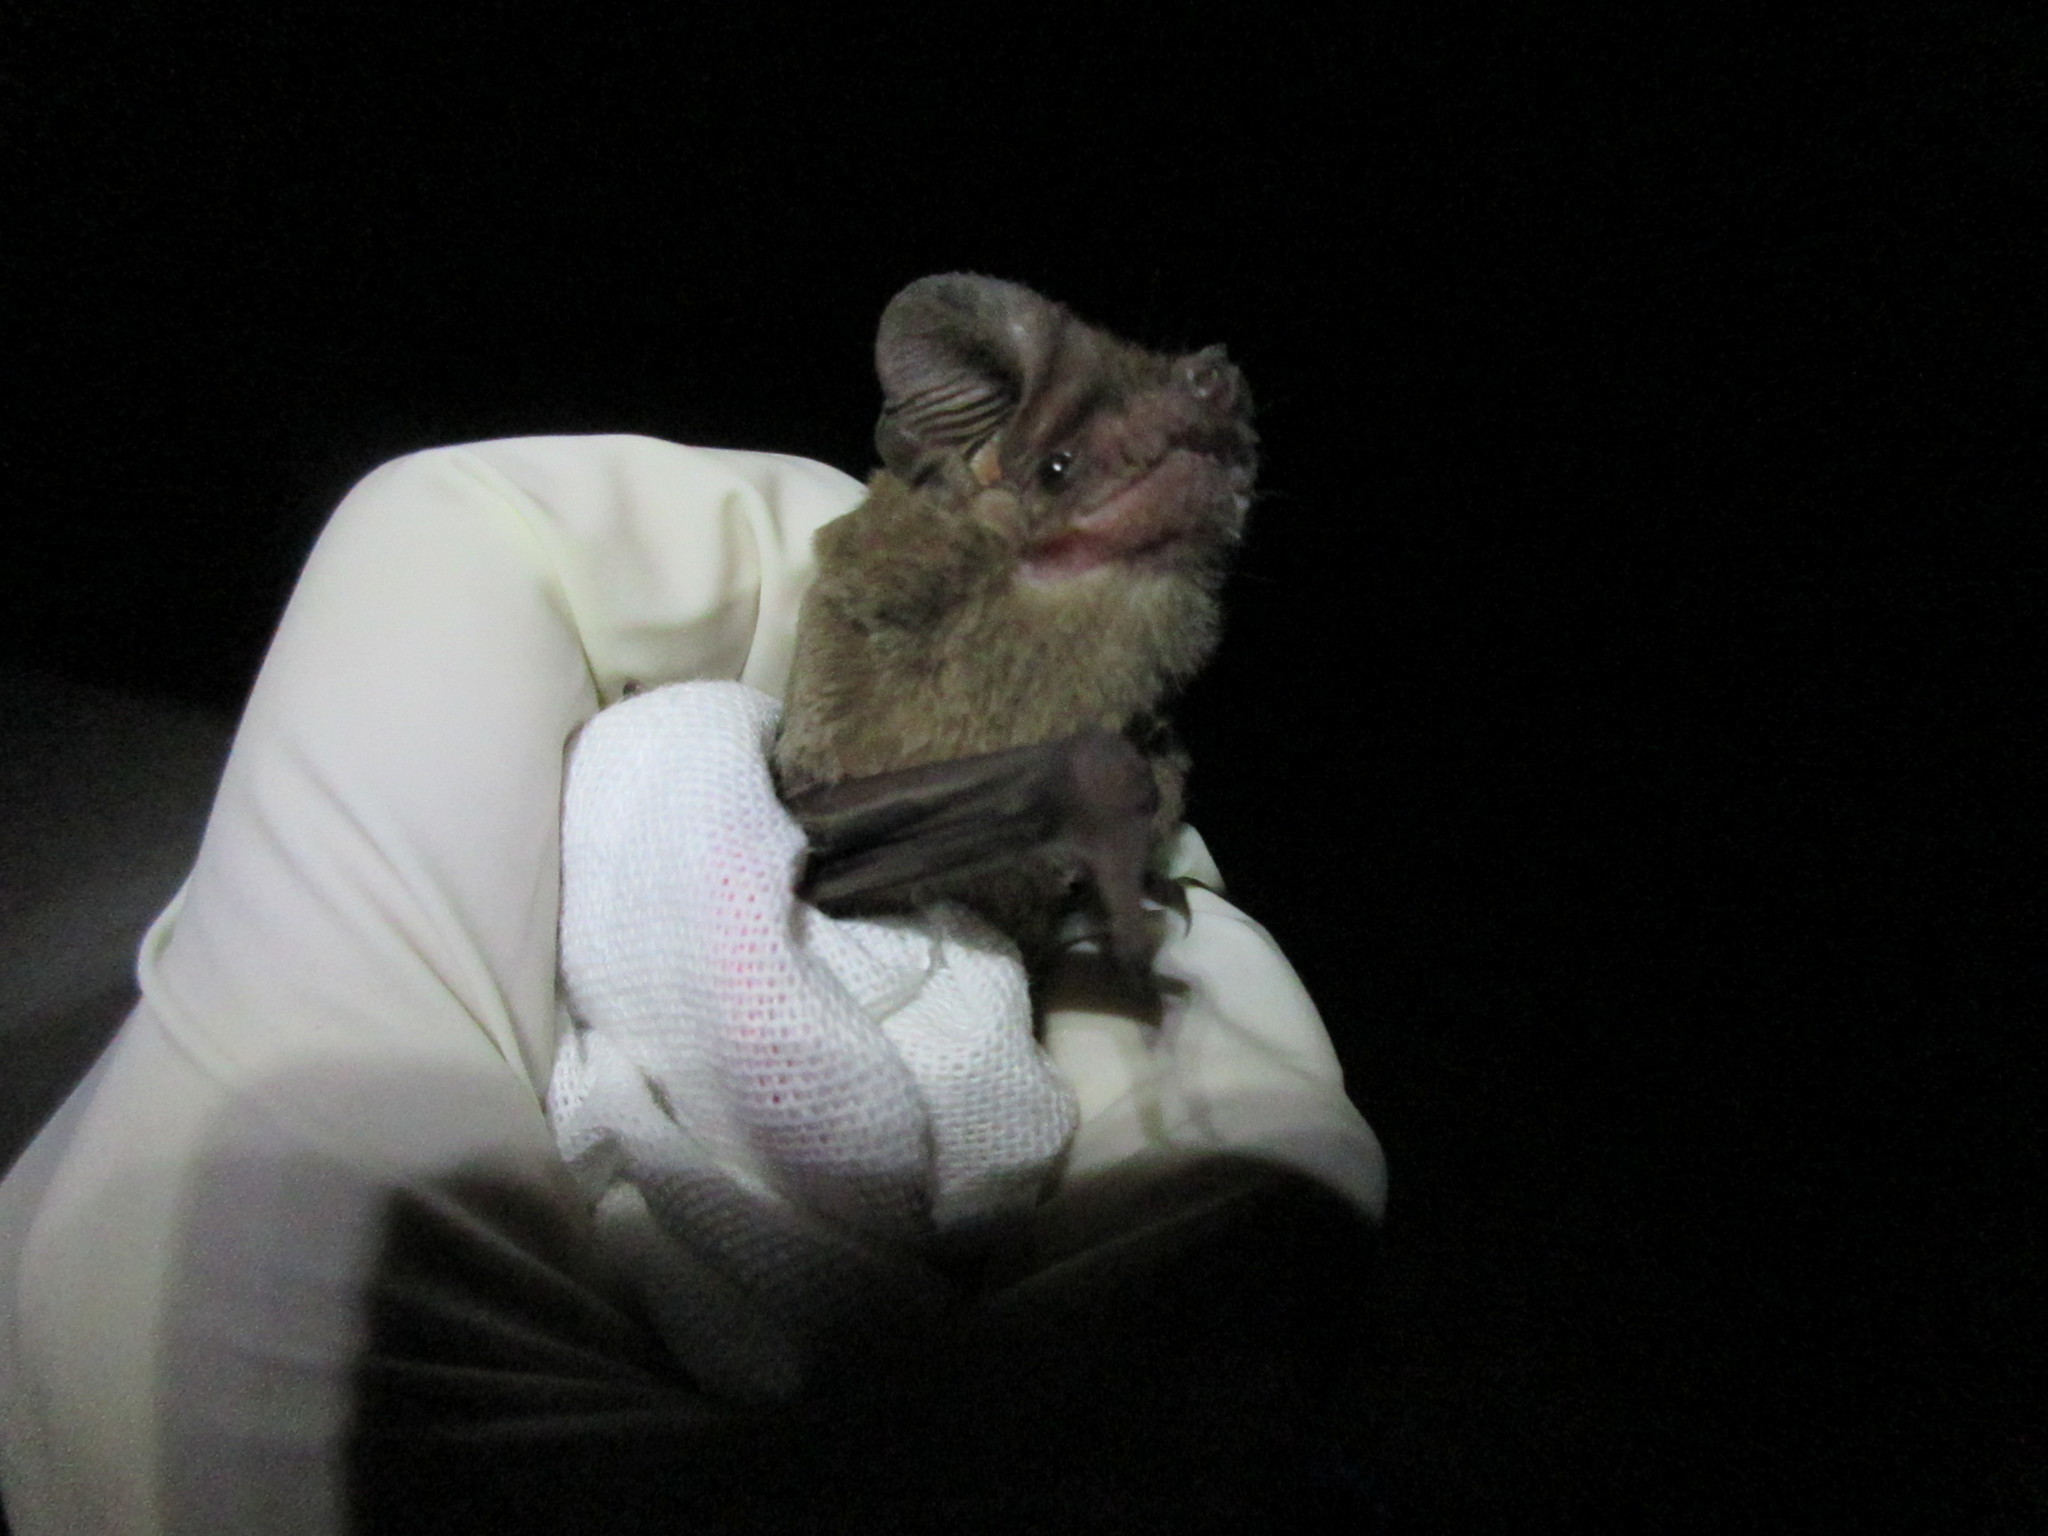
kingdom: Animalia
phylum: Chordata
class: Mammalia
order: Chiroptera
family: Molossidae
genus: Tadarida
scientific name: Tadarida brasiliensis
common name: Mexican free-tailed bat
